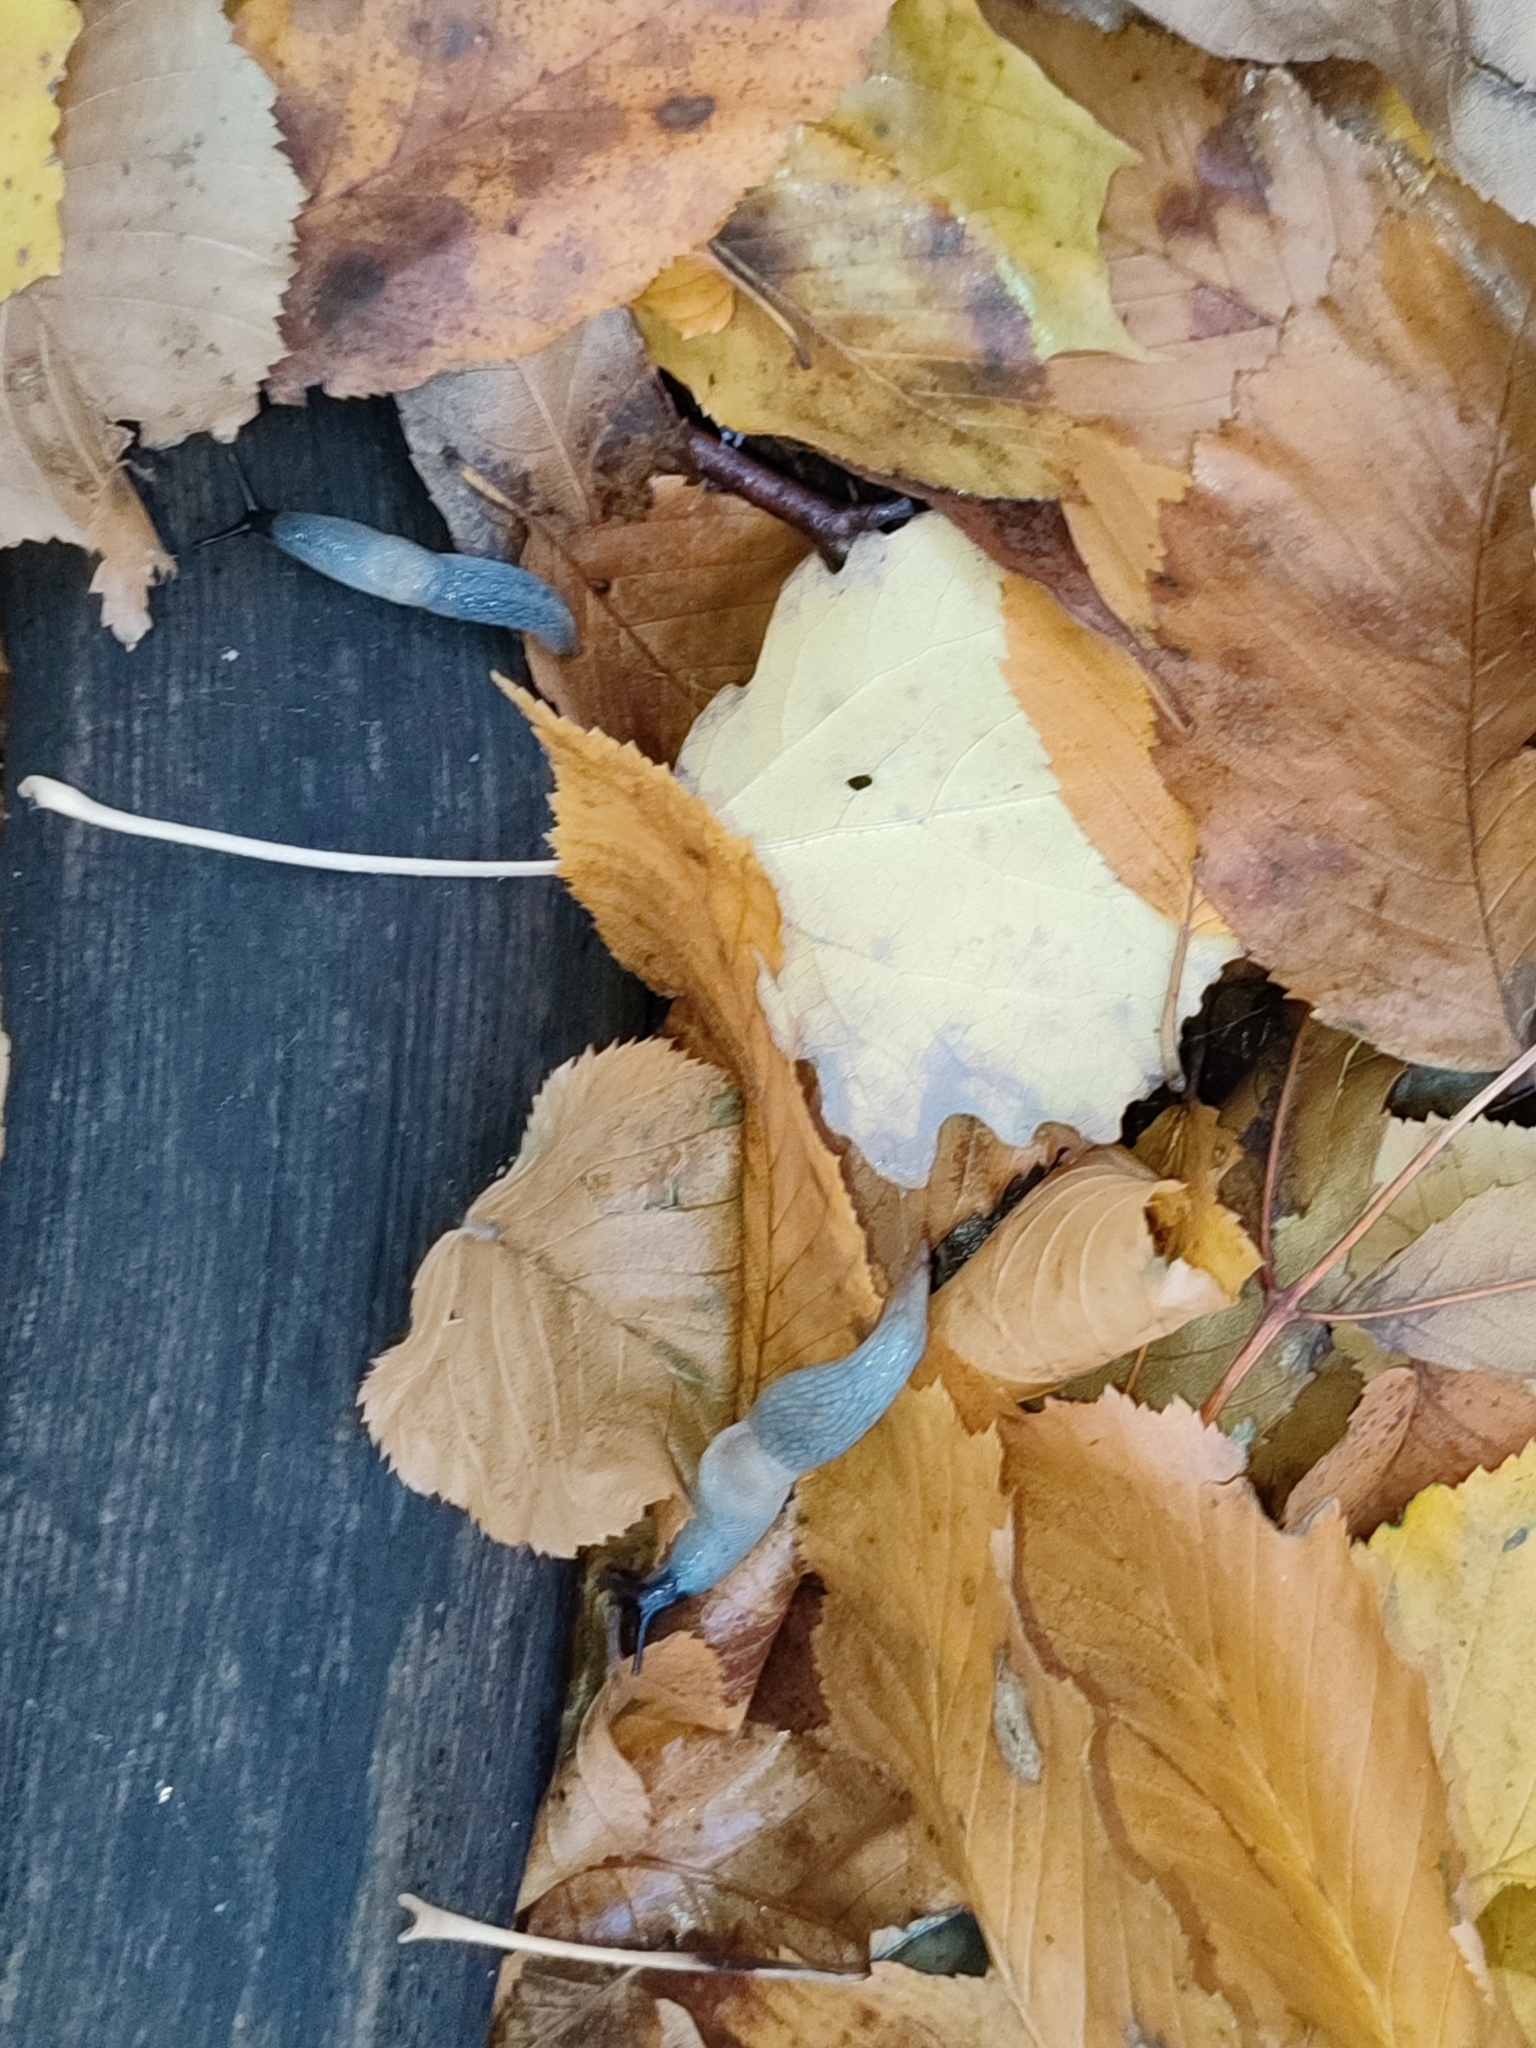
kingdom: Animalia
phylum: Mollusca
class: Gastropoda
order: Stylommatophora
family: Agriolimacidae
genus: Krynickillus
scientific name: Krynickillus melanocephalus
